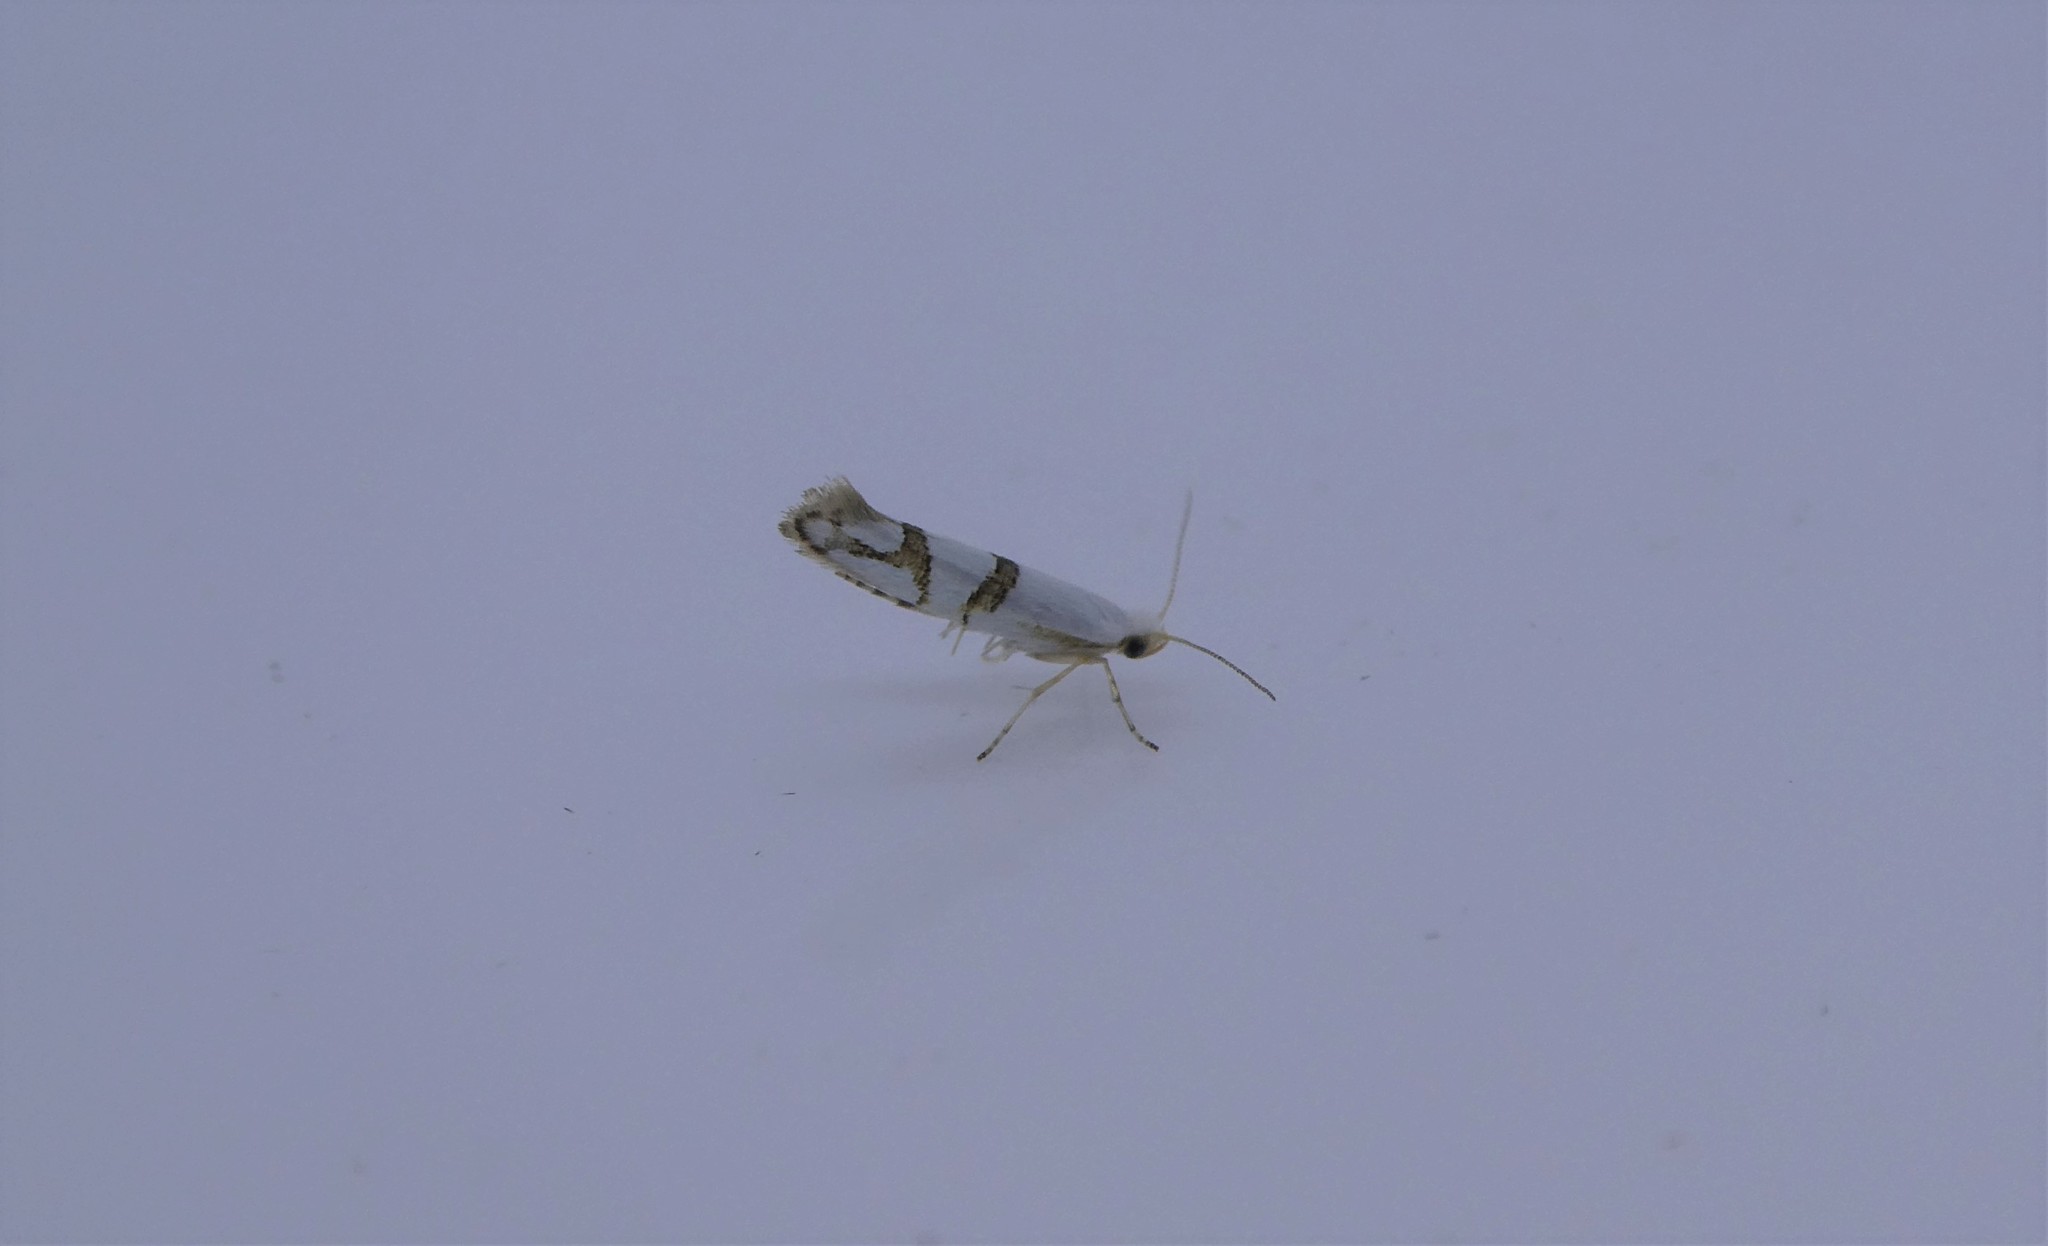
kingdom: Animalia
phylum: Arthropoda
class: Insecta
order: Lepidoptera
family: Argyresthiidae
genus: Argyresthia
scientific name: Argyresthia oreasella
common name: Cherry shoot borer moth
